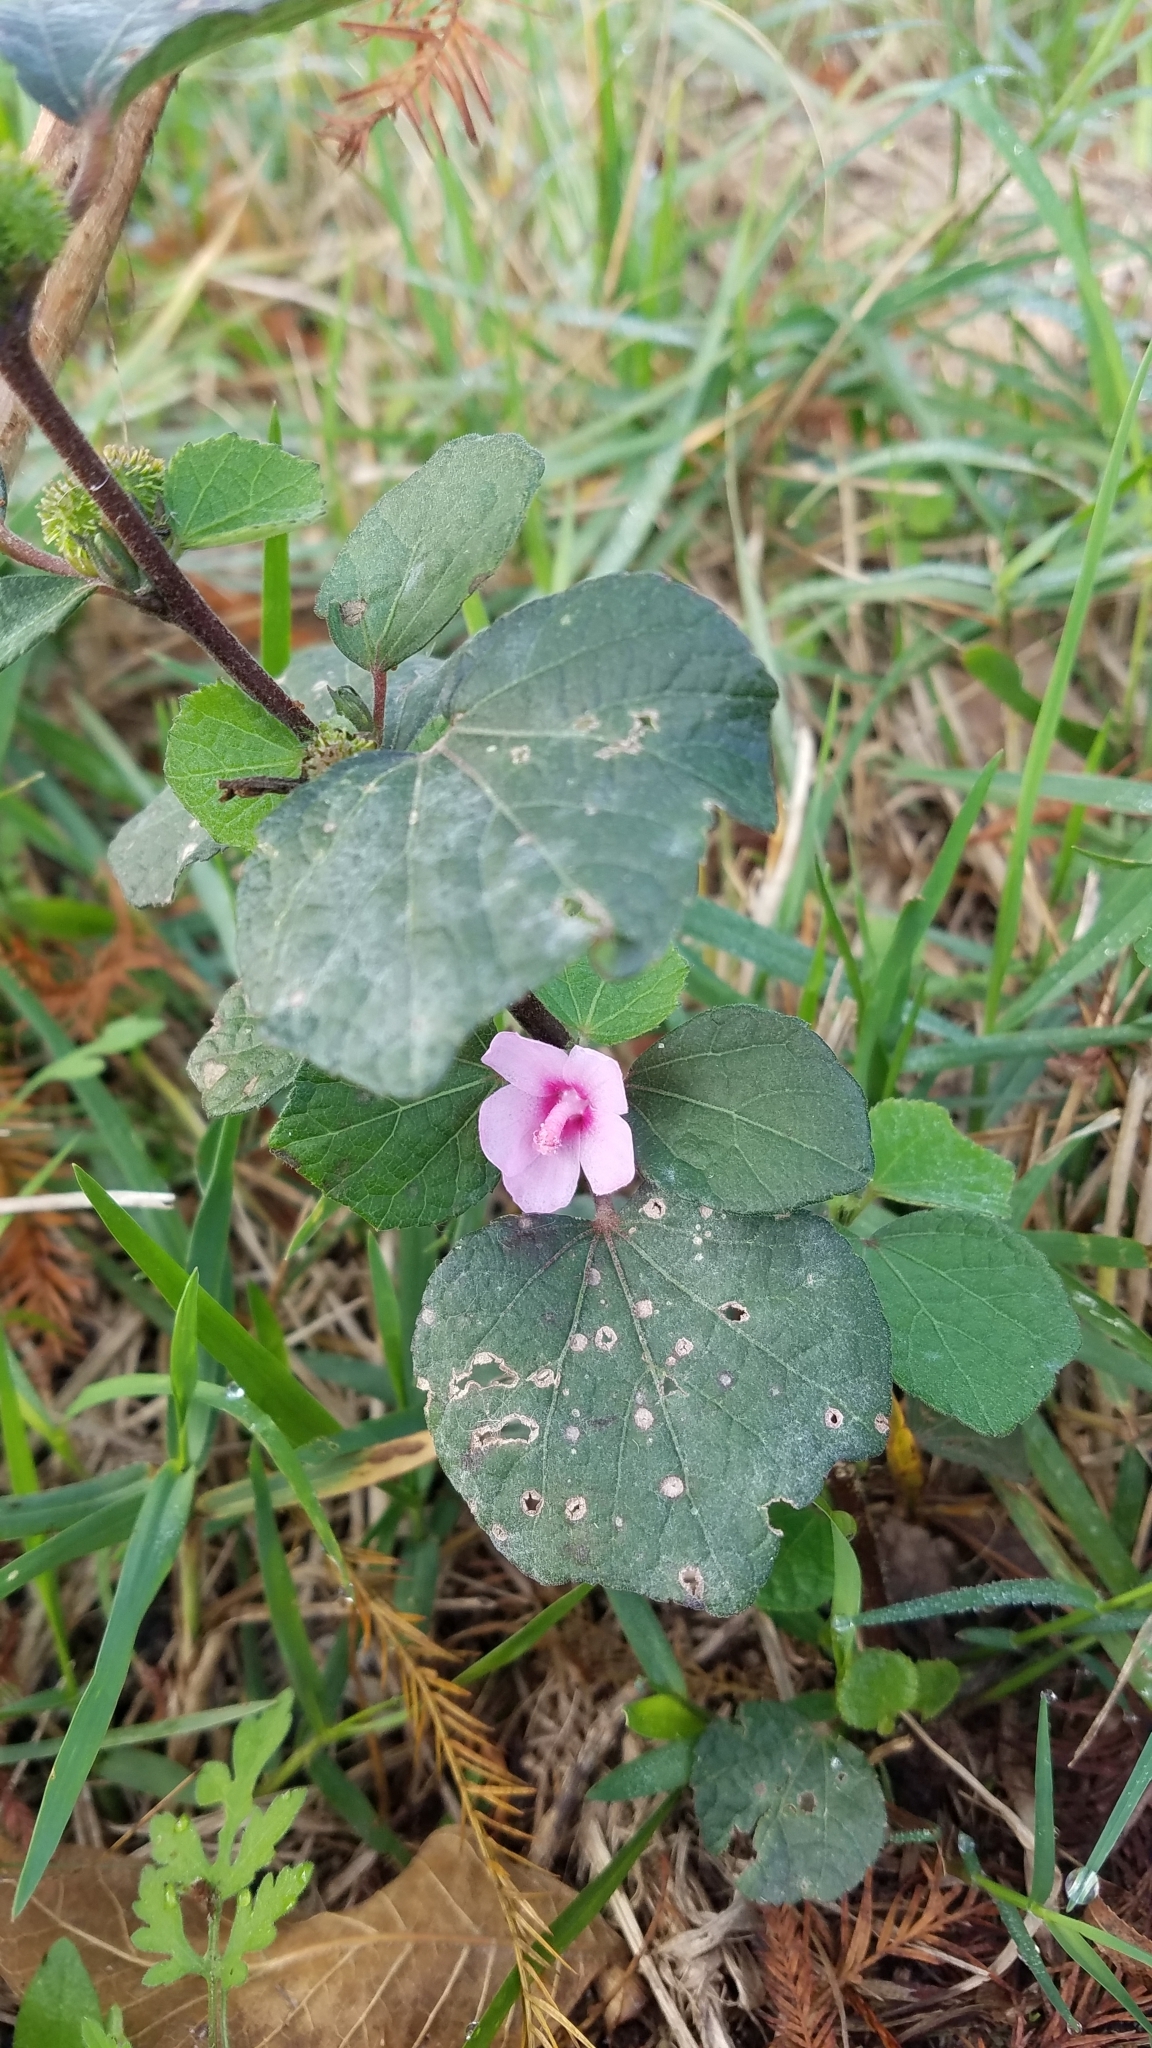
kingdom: Plantae
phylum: Tracheophyta
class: Magnoliopsida
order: Malvales
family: Malvaceae
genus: Urena
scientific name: Urena lobata
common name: Caesarweed
